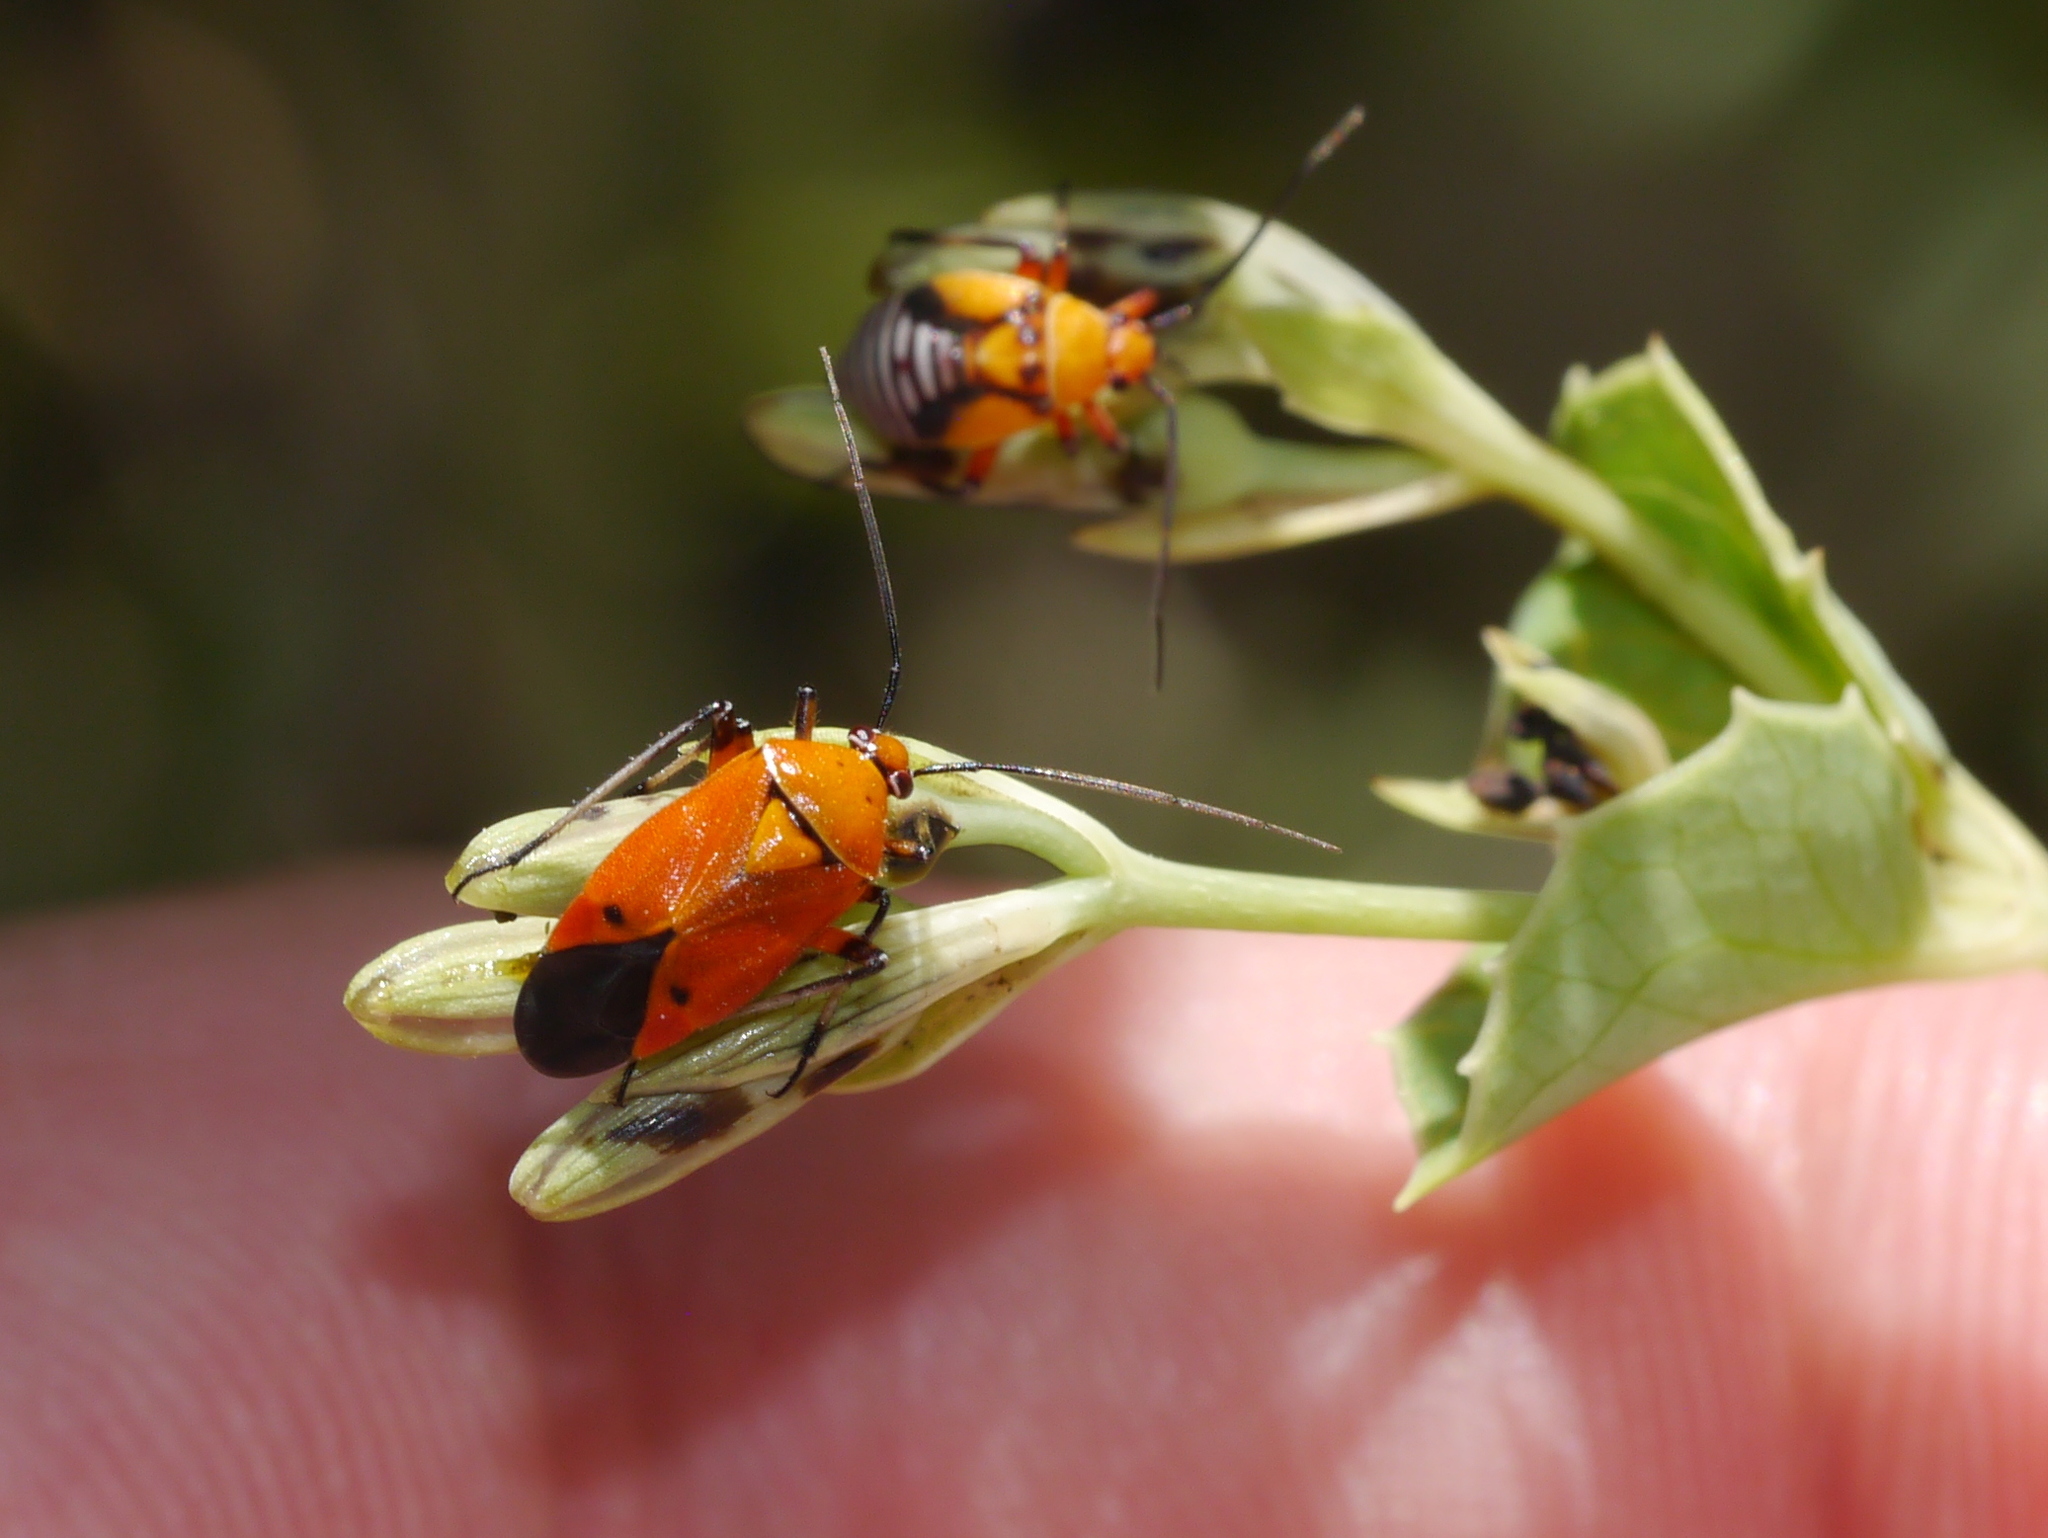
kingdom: Animalia
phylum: Arthropoda
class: Insecta
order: Hemiptera
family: Miridae
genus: Neocapsus
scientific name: Neocapsus fasciativentris
